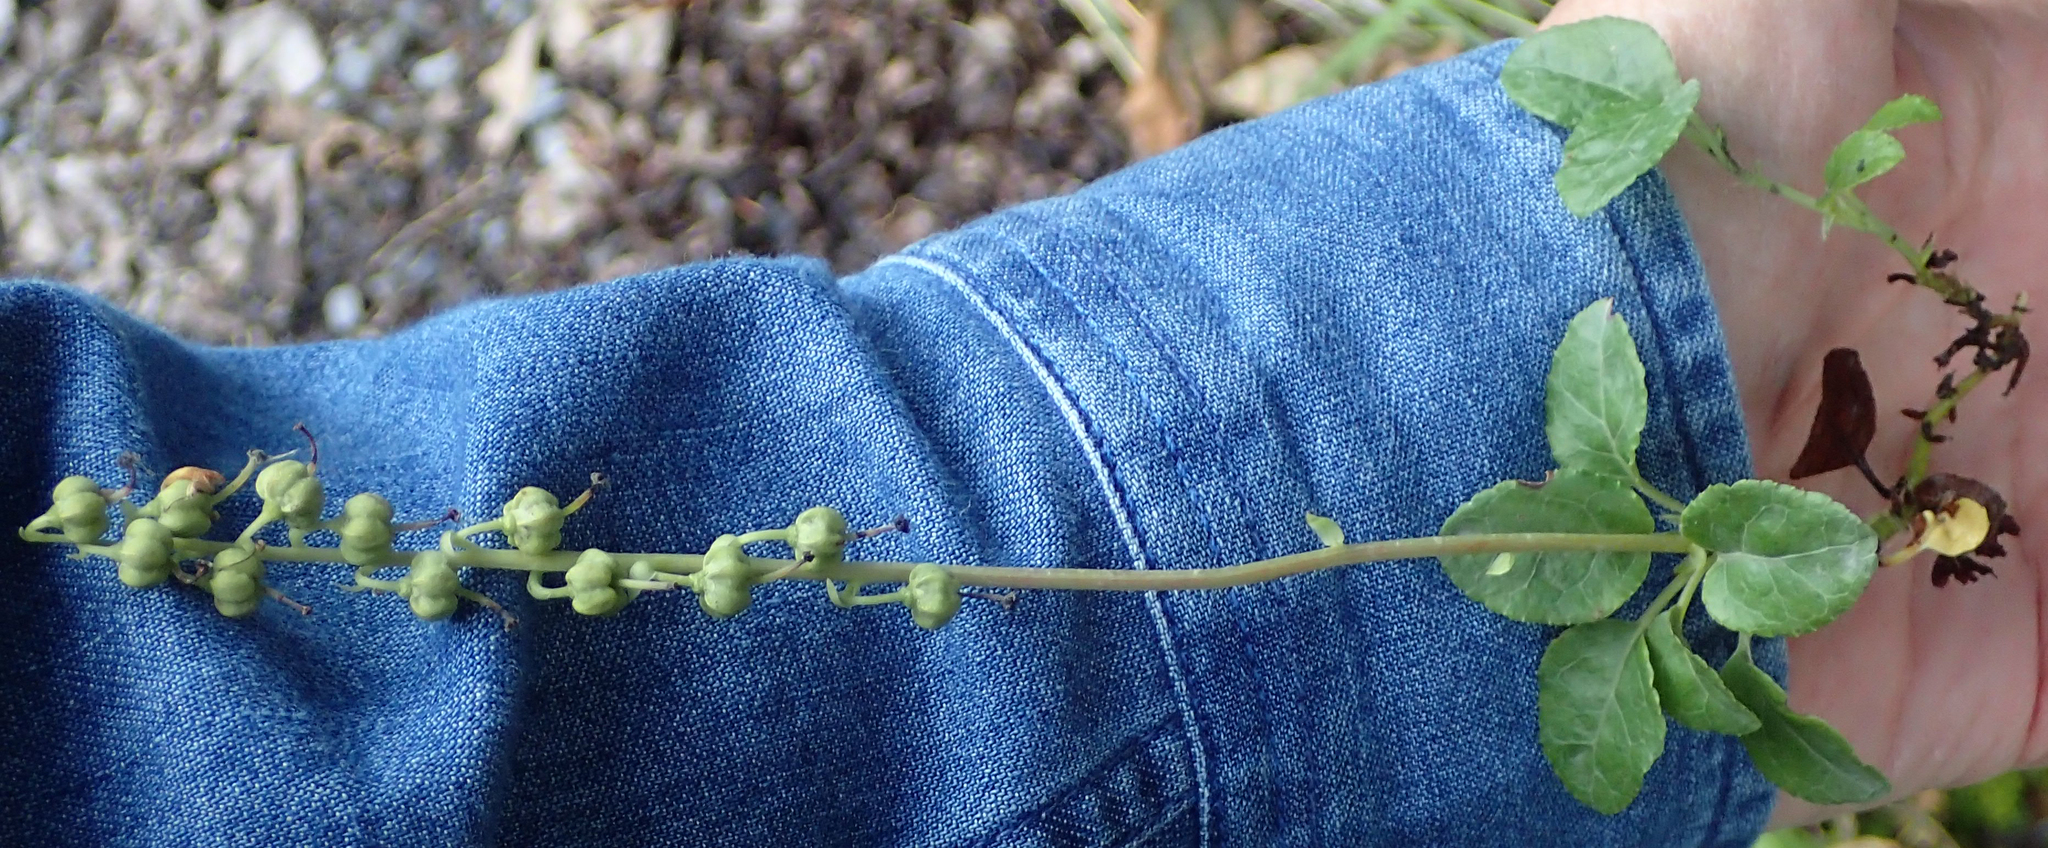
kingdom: Plantae
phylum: Tracheophyta
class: Magnoliopsida
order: Ericales
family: Ericaceae
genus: Orthilia
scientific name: Orthilia secunda
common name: One-sided orthilia
